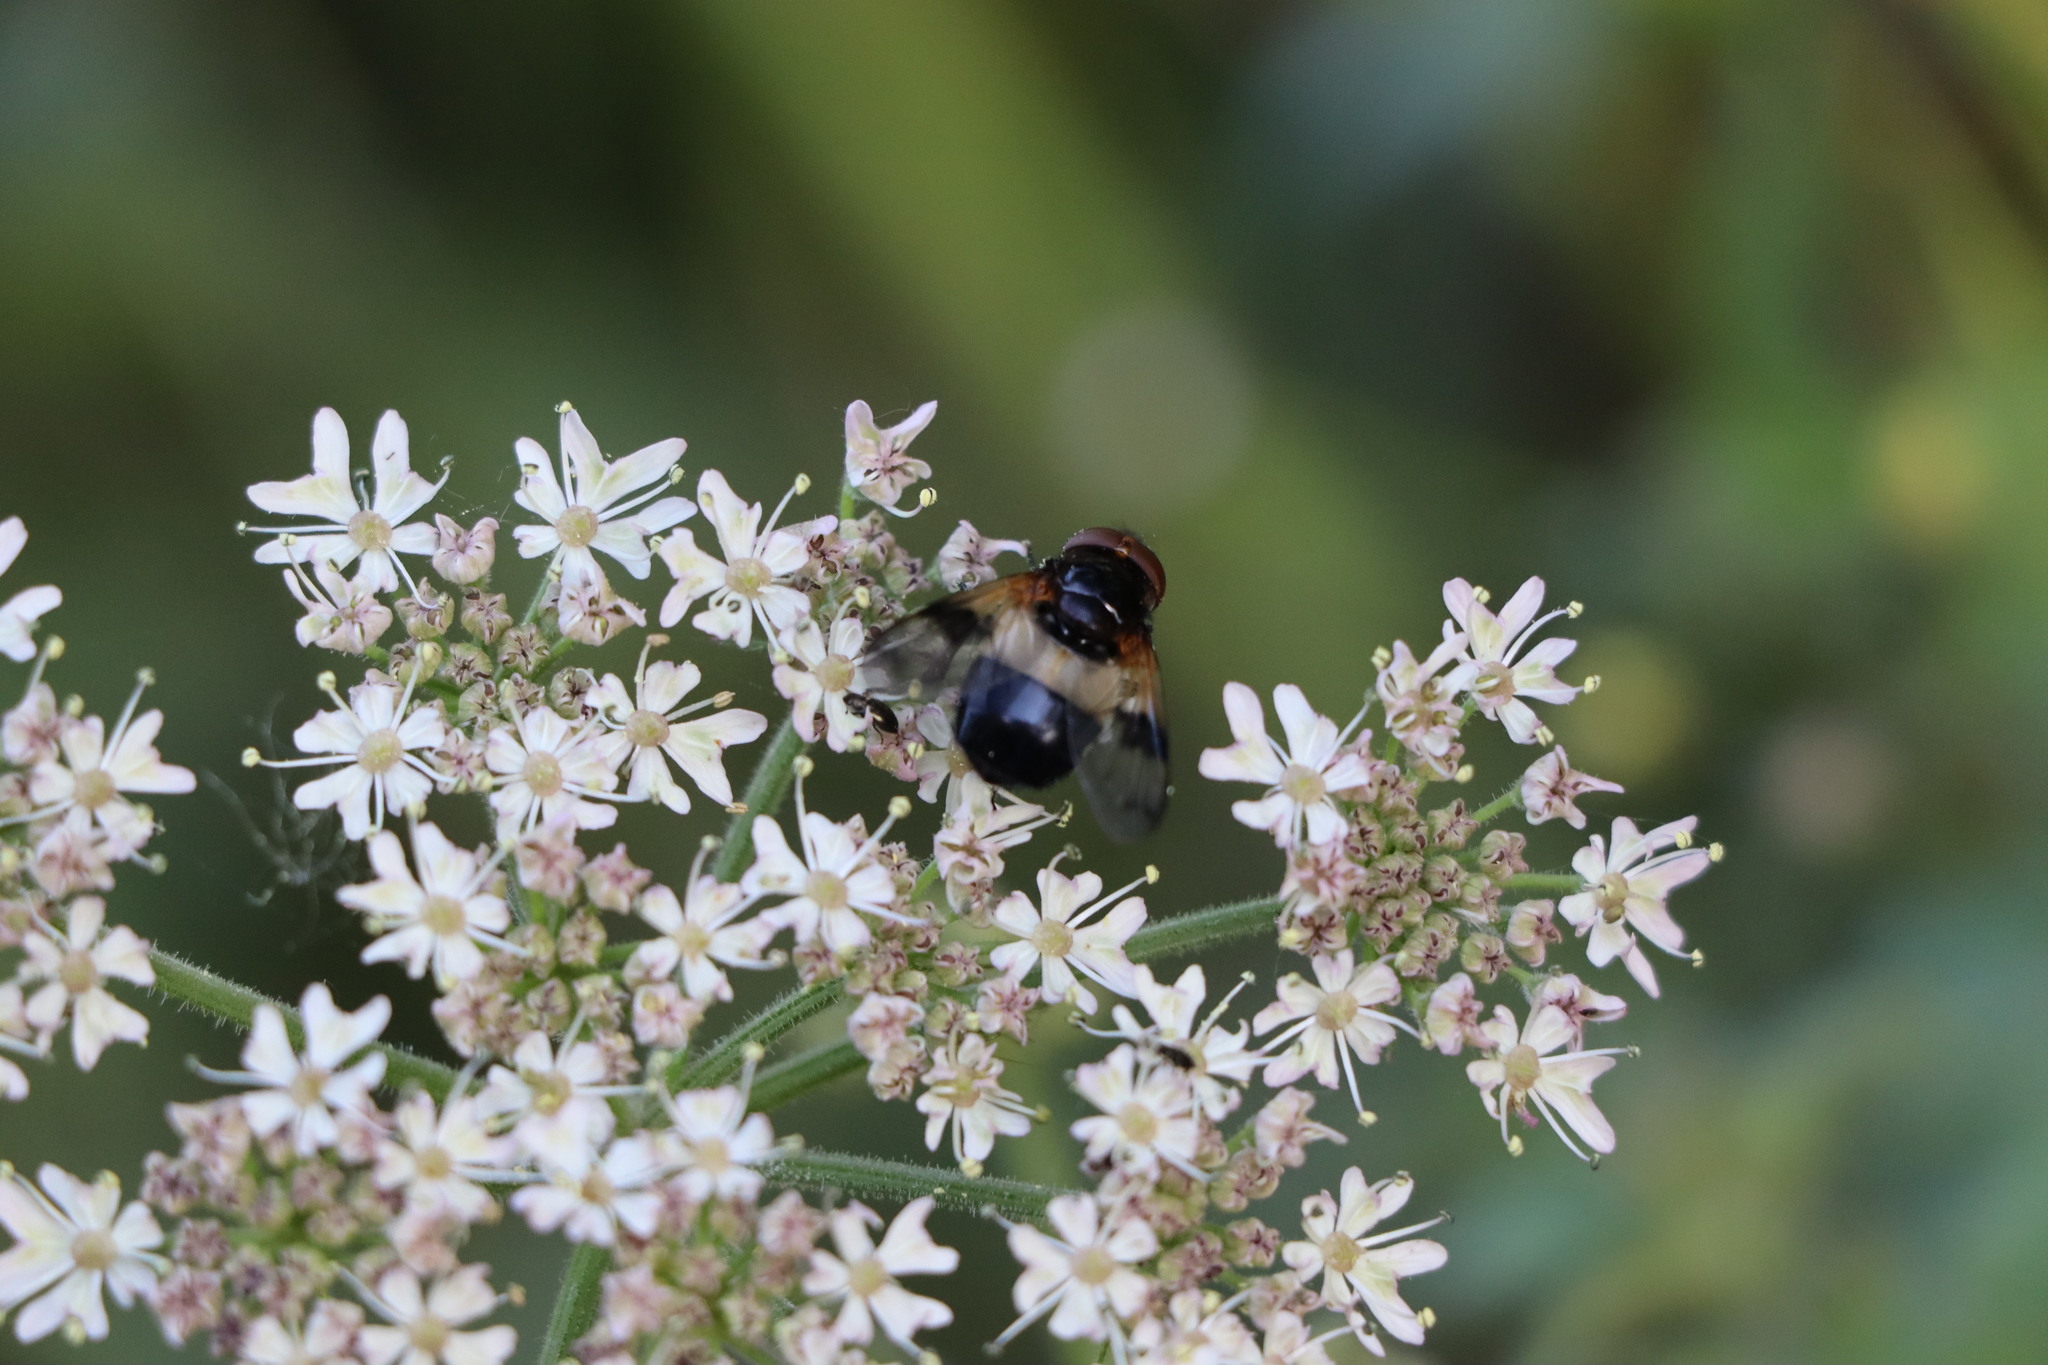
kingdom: Animalia
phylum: Arthropoda
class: Insecta
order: Diptera
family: Syrphidae
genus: Volucella
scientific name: Volucella pellucens
